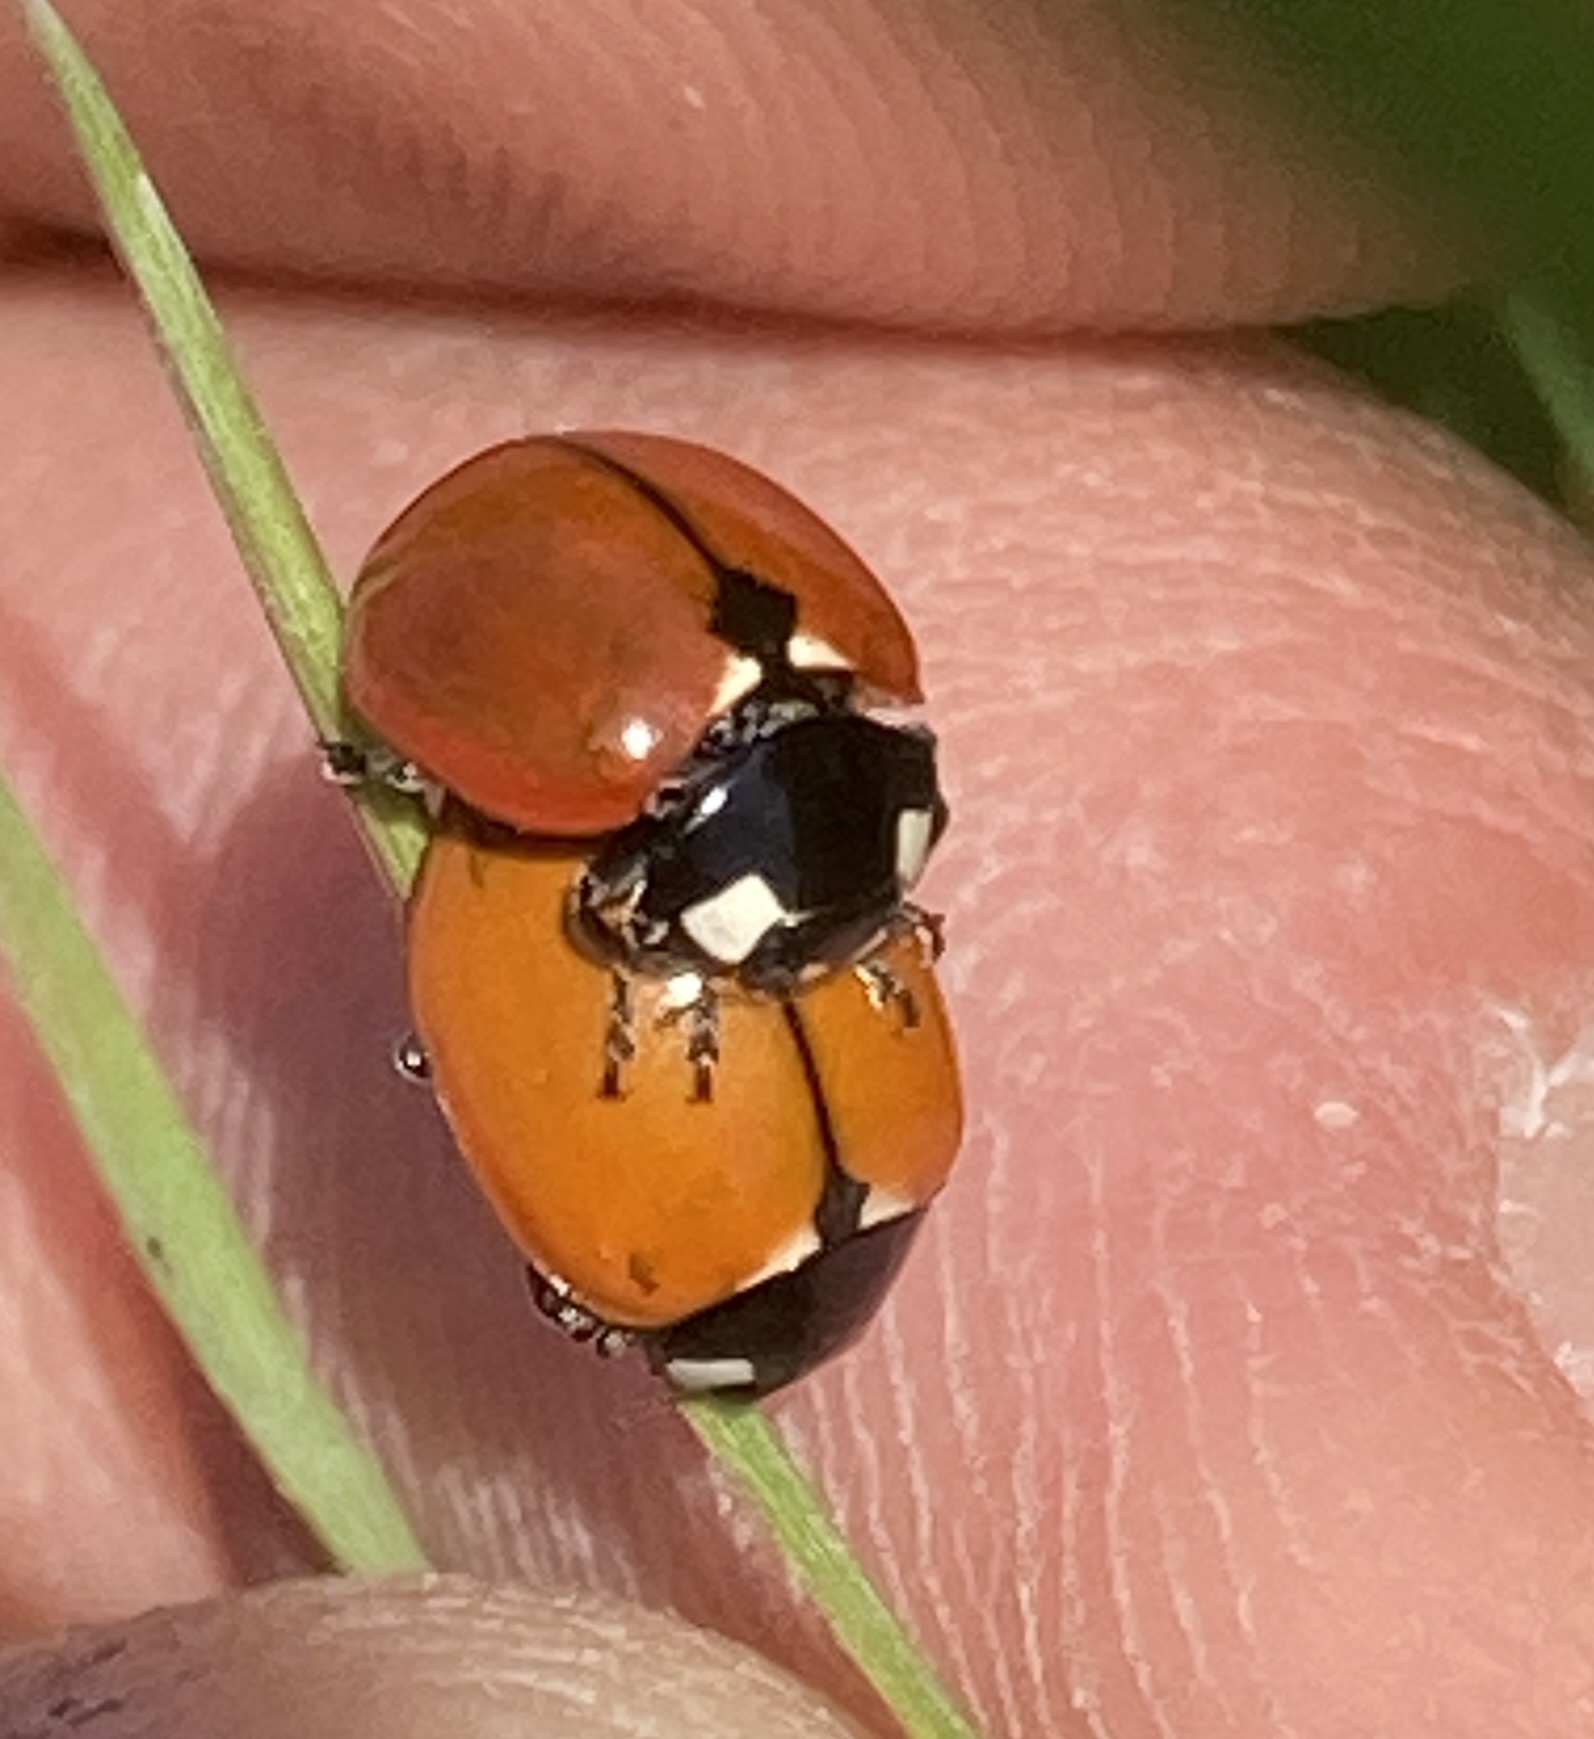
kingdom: Animalia
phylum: Arthropoda
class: Insecta
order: Coleoptera
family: Coccinellidae
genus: Coccinella
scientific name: Coccinella californica
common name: Lady beetle
